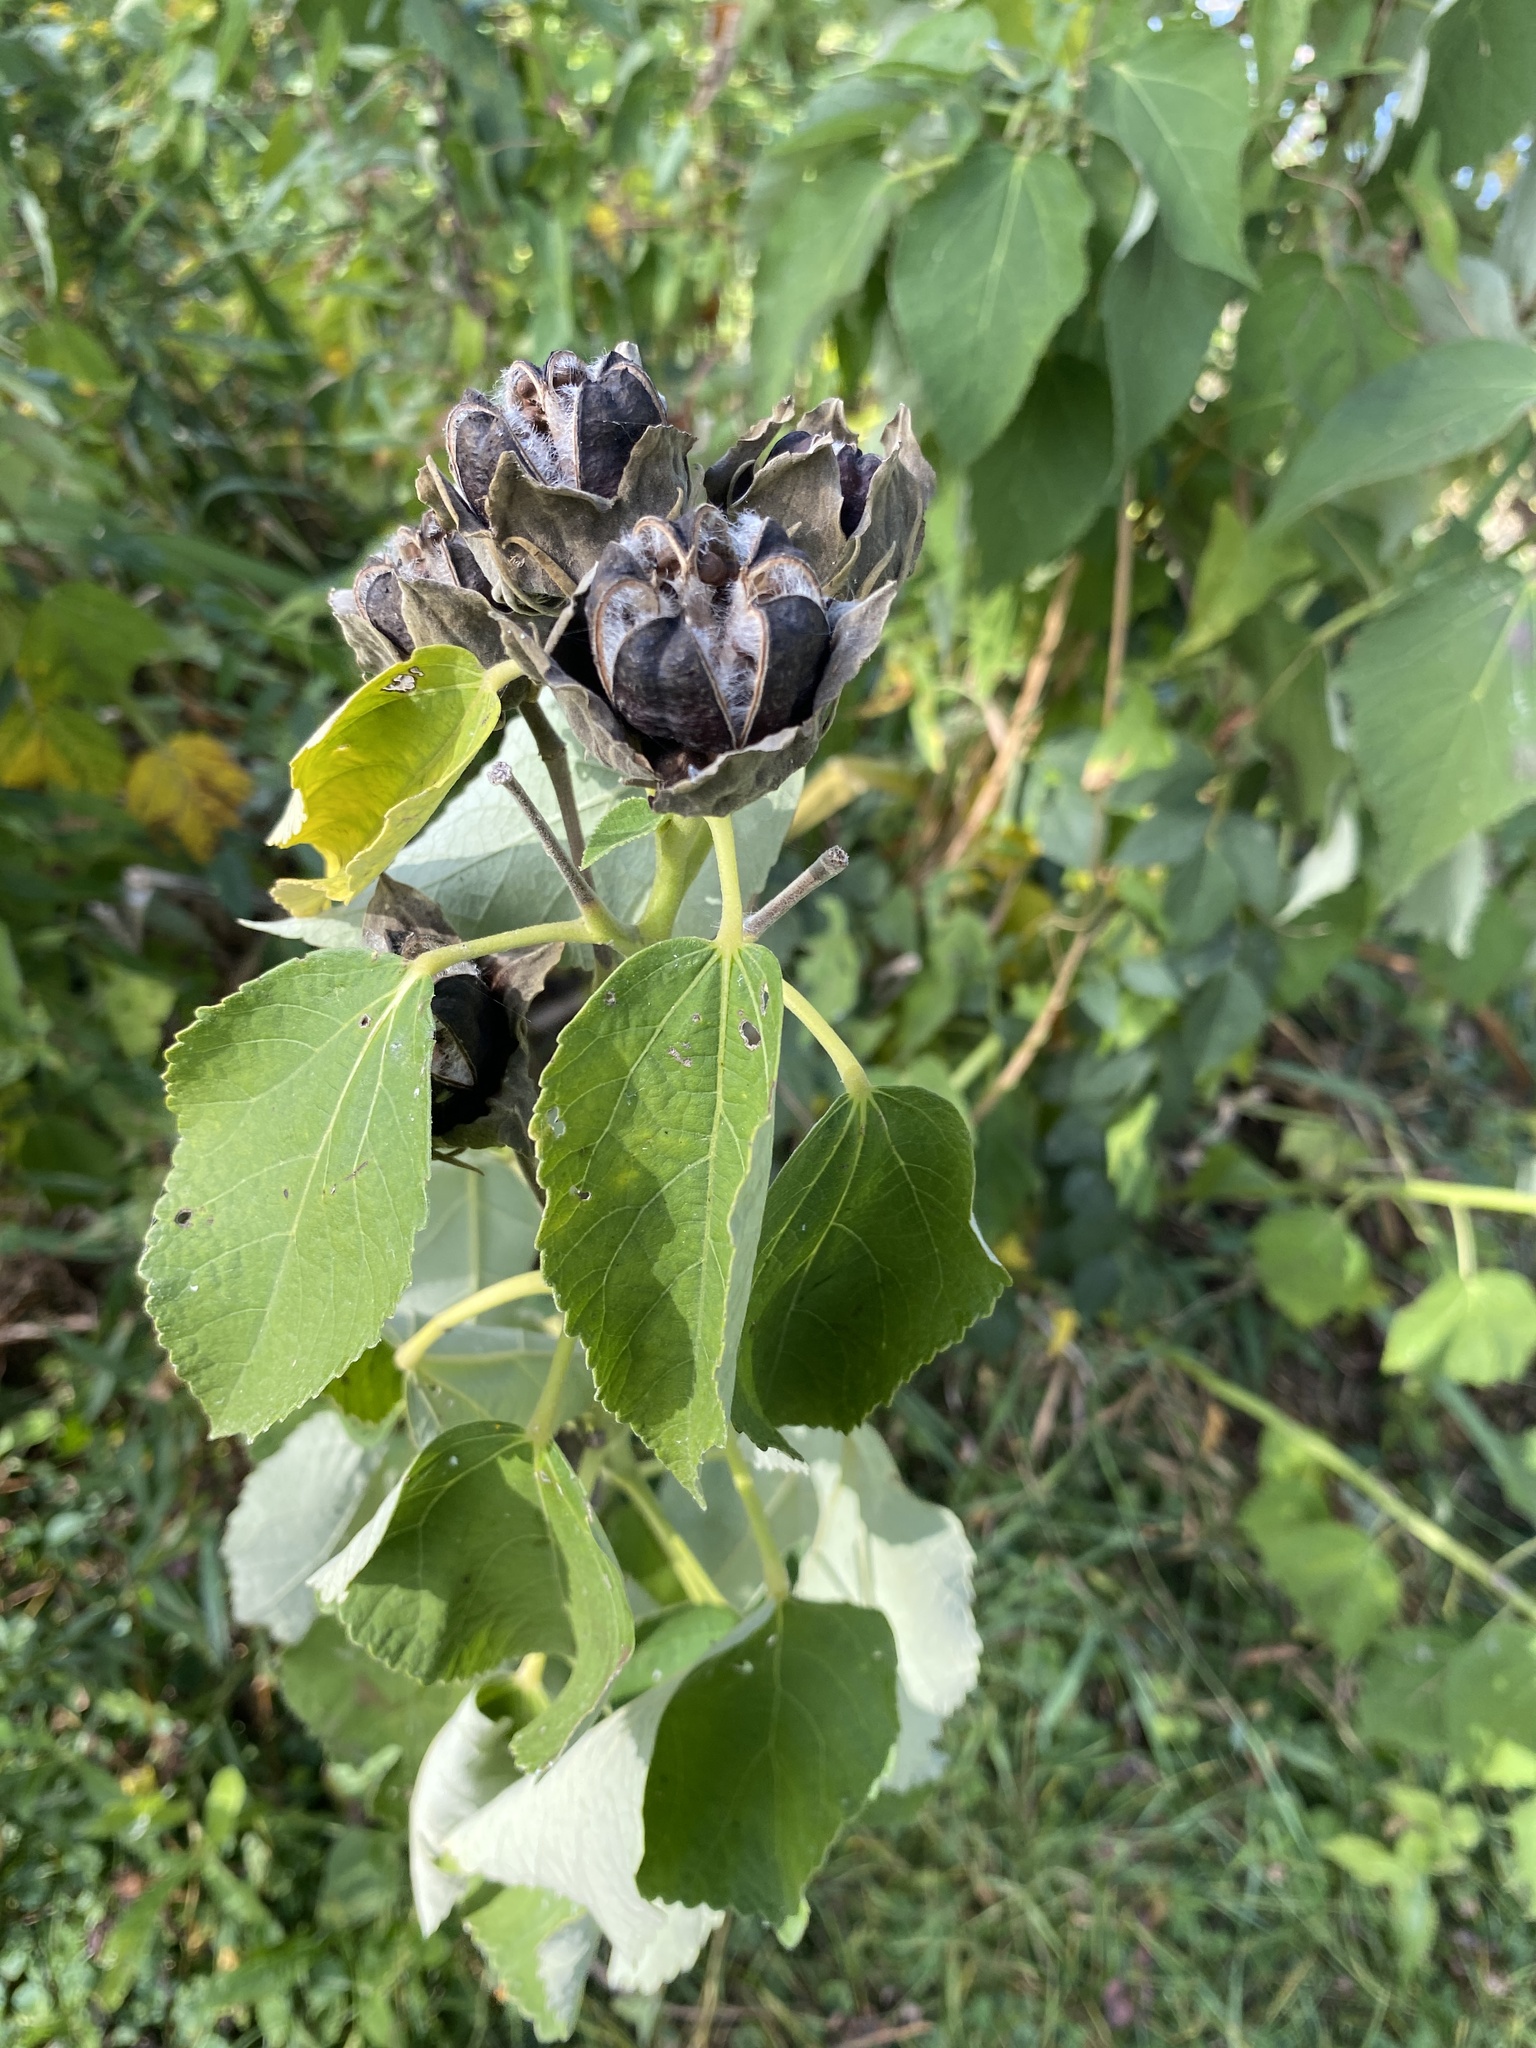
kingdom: Plantae
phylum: Tracheophyta
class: Magnoliopsida
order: Malvales
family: Malvaceae
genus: Hibiscus
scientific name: Hibiscus moscheutos
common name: Common rose-mallow
